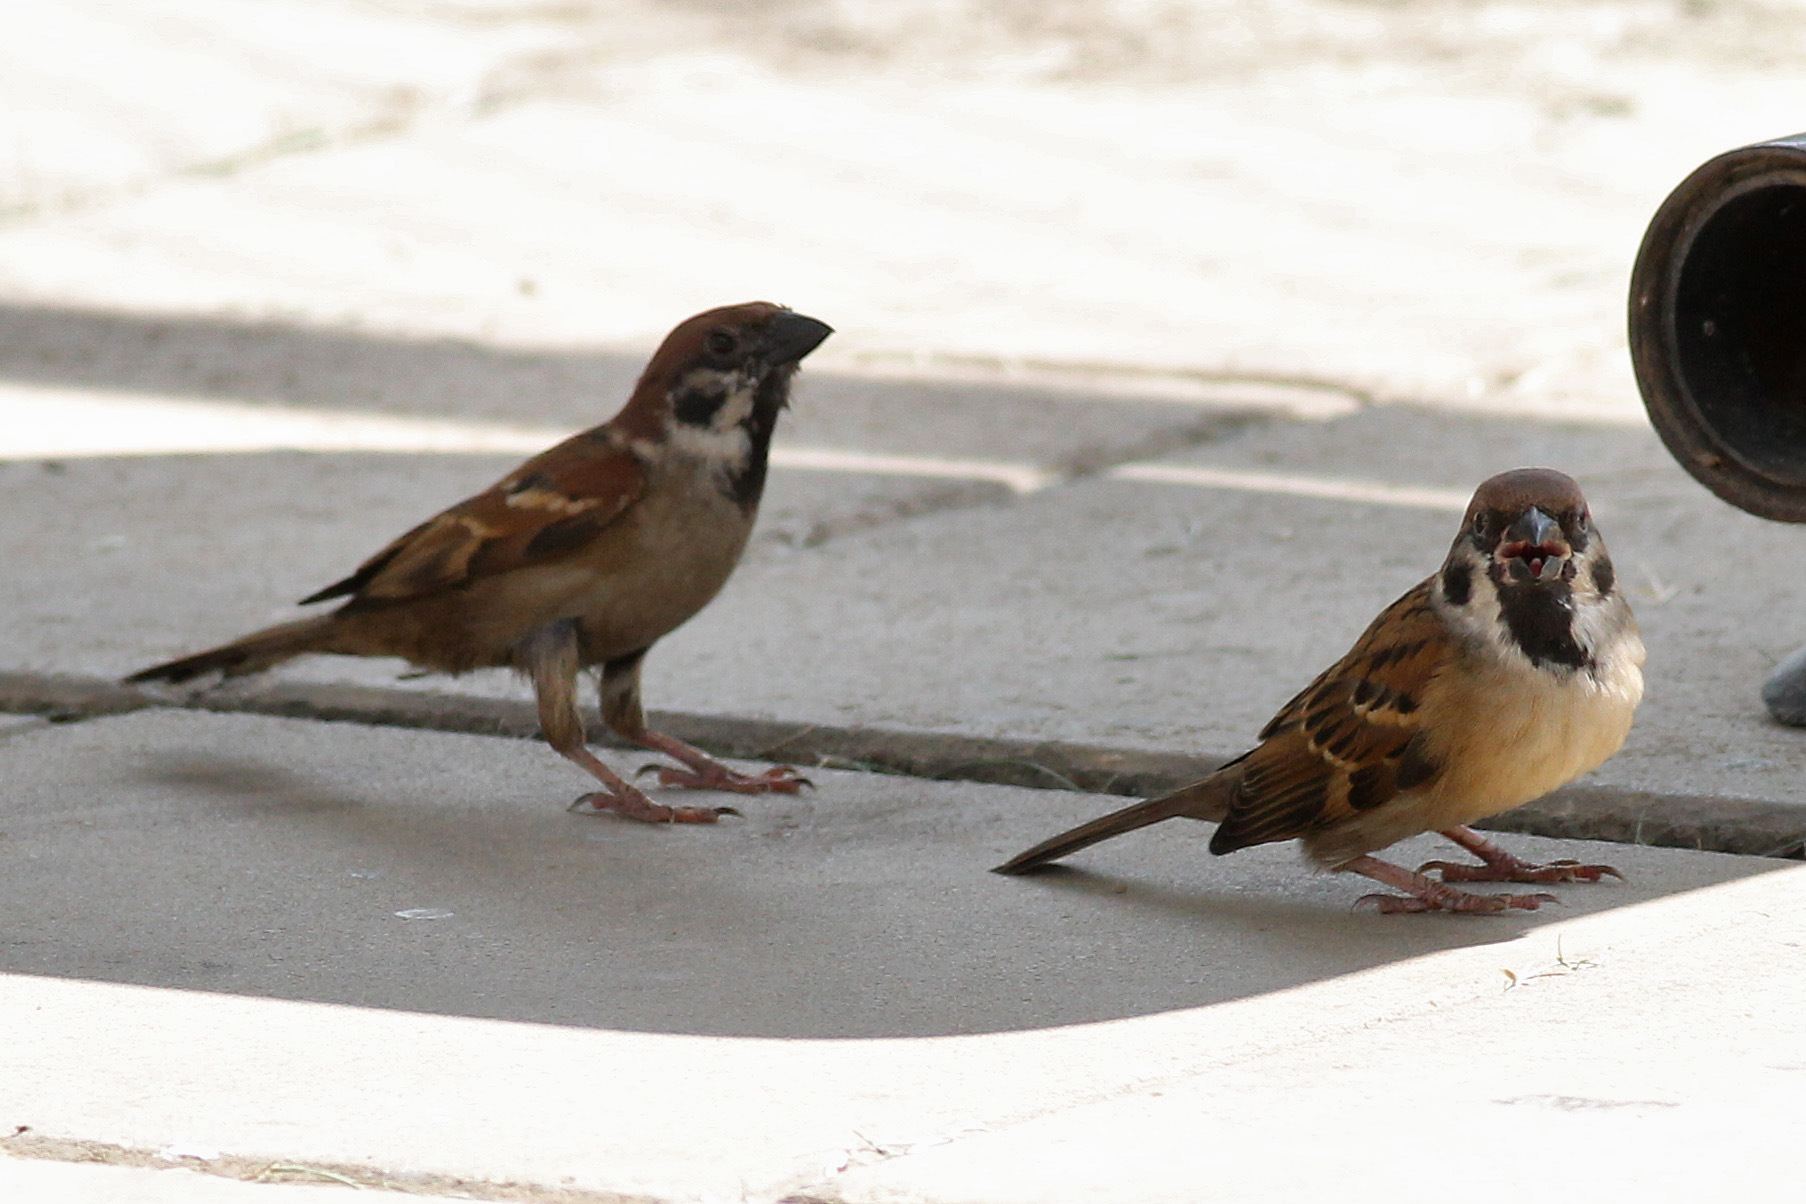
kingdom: Animalia
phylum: Chordata
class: Aves
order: Passeriformes
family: Passeridae
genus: Passer
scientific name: Passer montanus
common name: Eurasian tree sparrow
